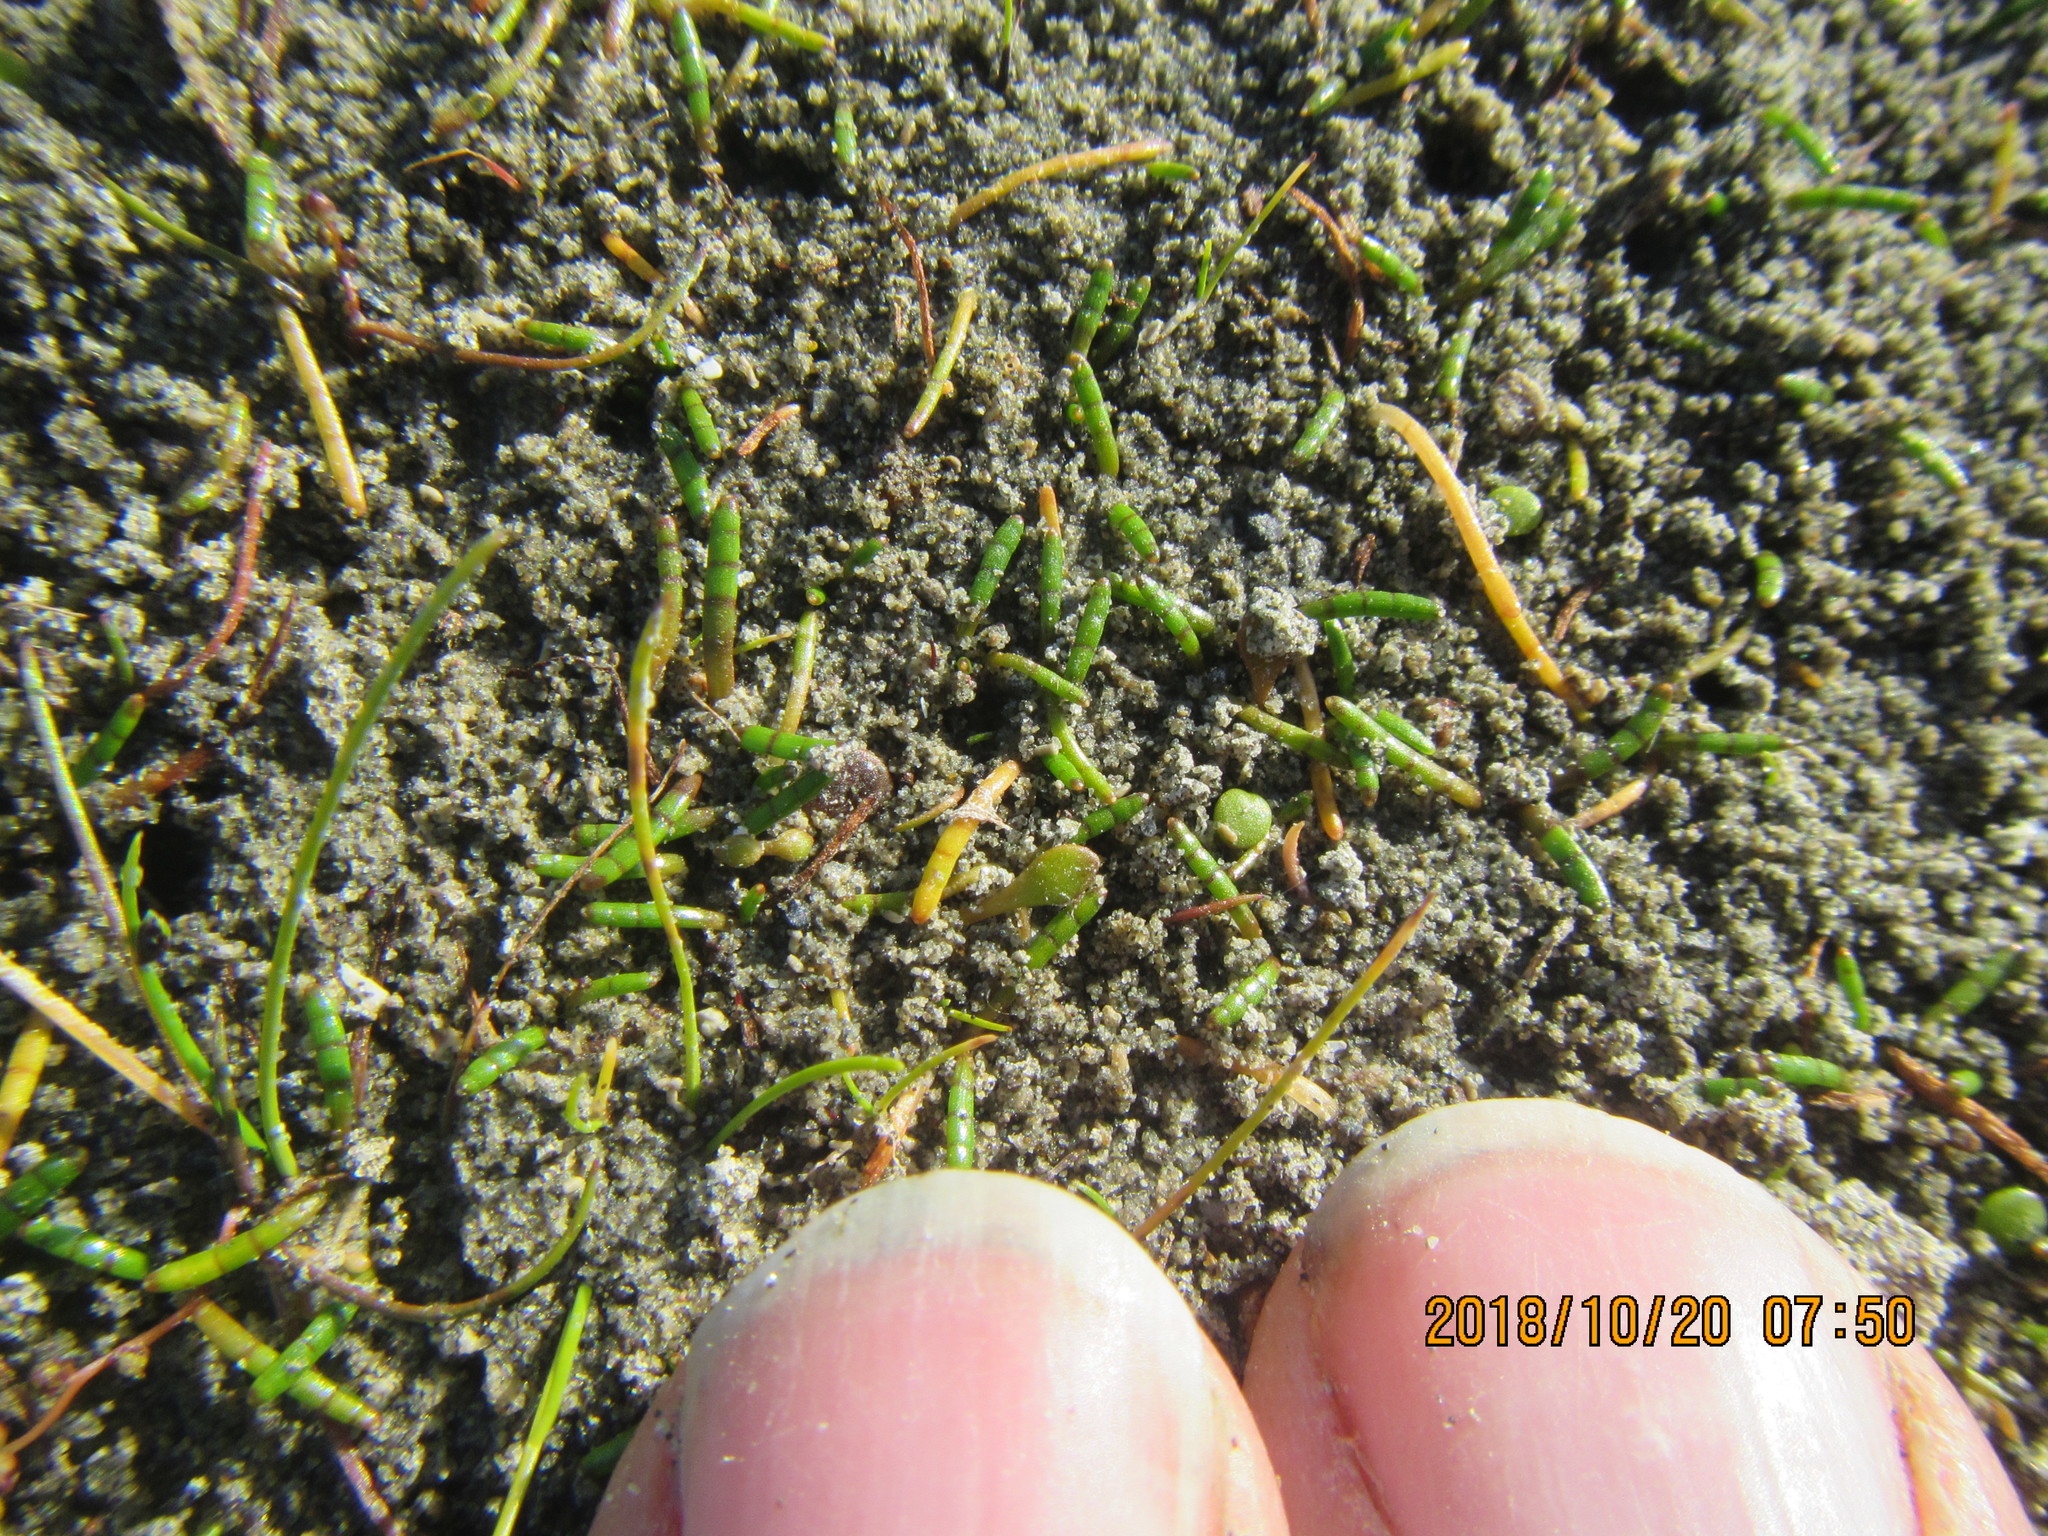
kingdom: Plantae
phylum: Tracheophyta
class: Magnoliopsida
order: Apiales
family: Apiaceae
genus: Lilaeopsis
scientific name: Lilaeopsis novae-zelandiae
